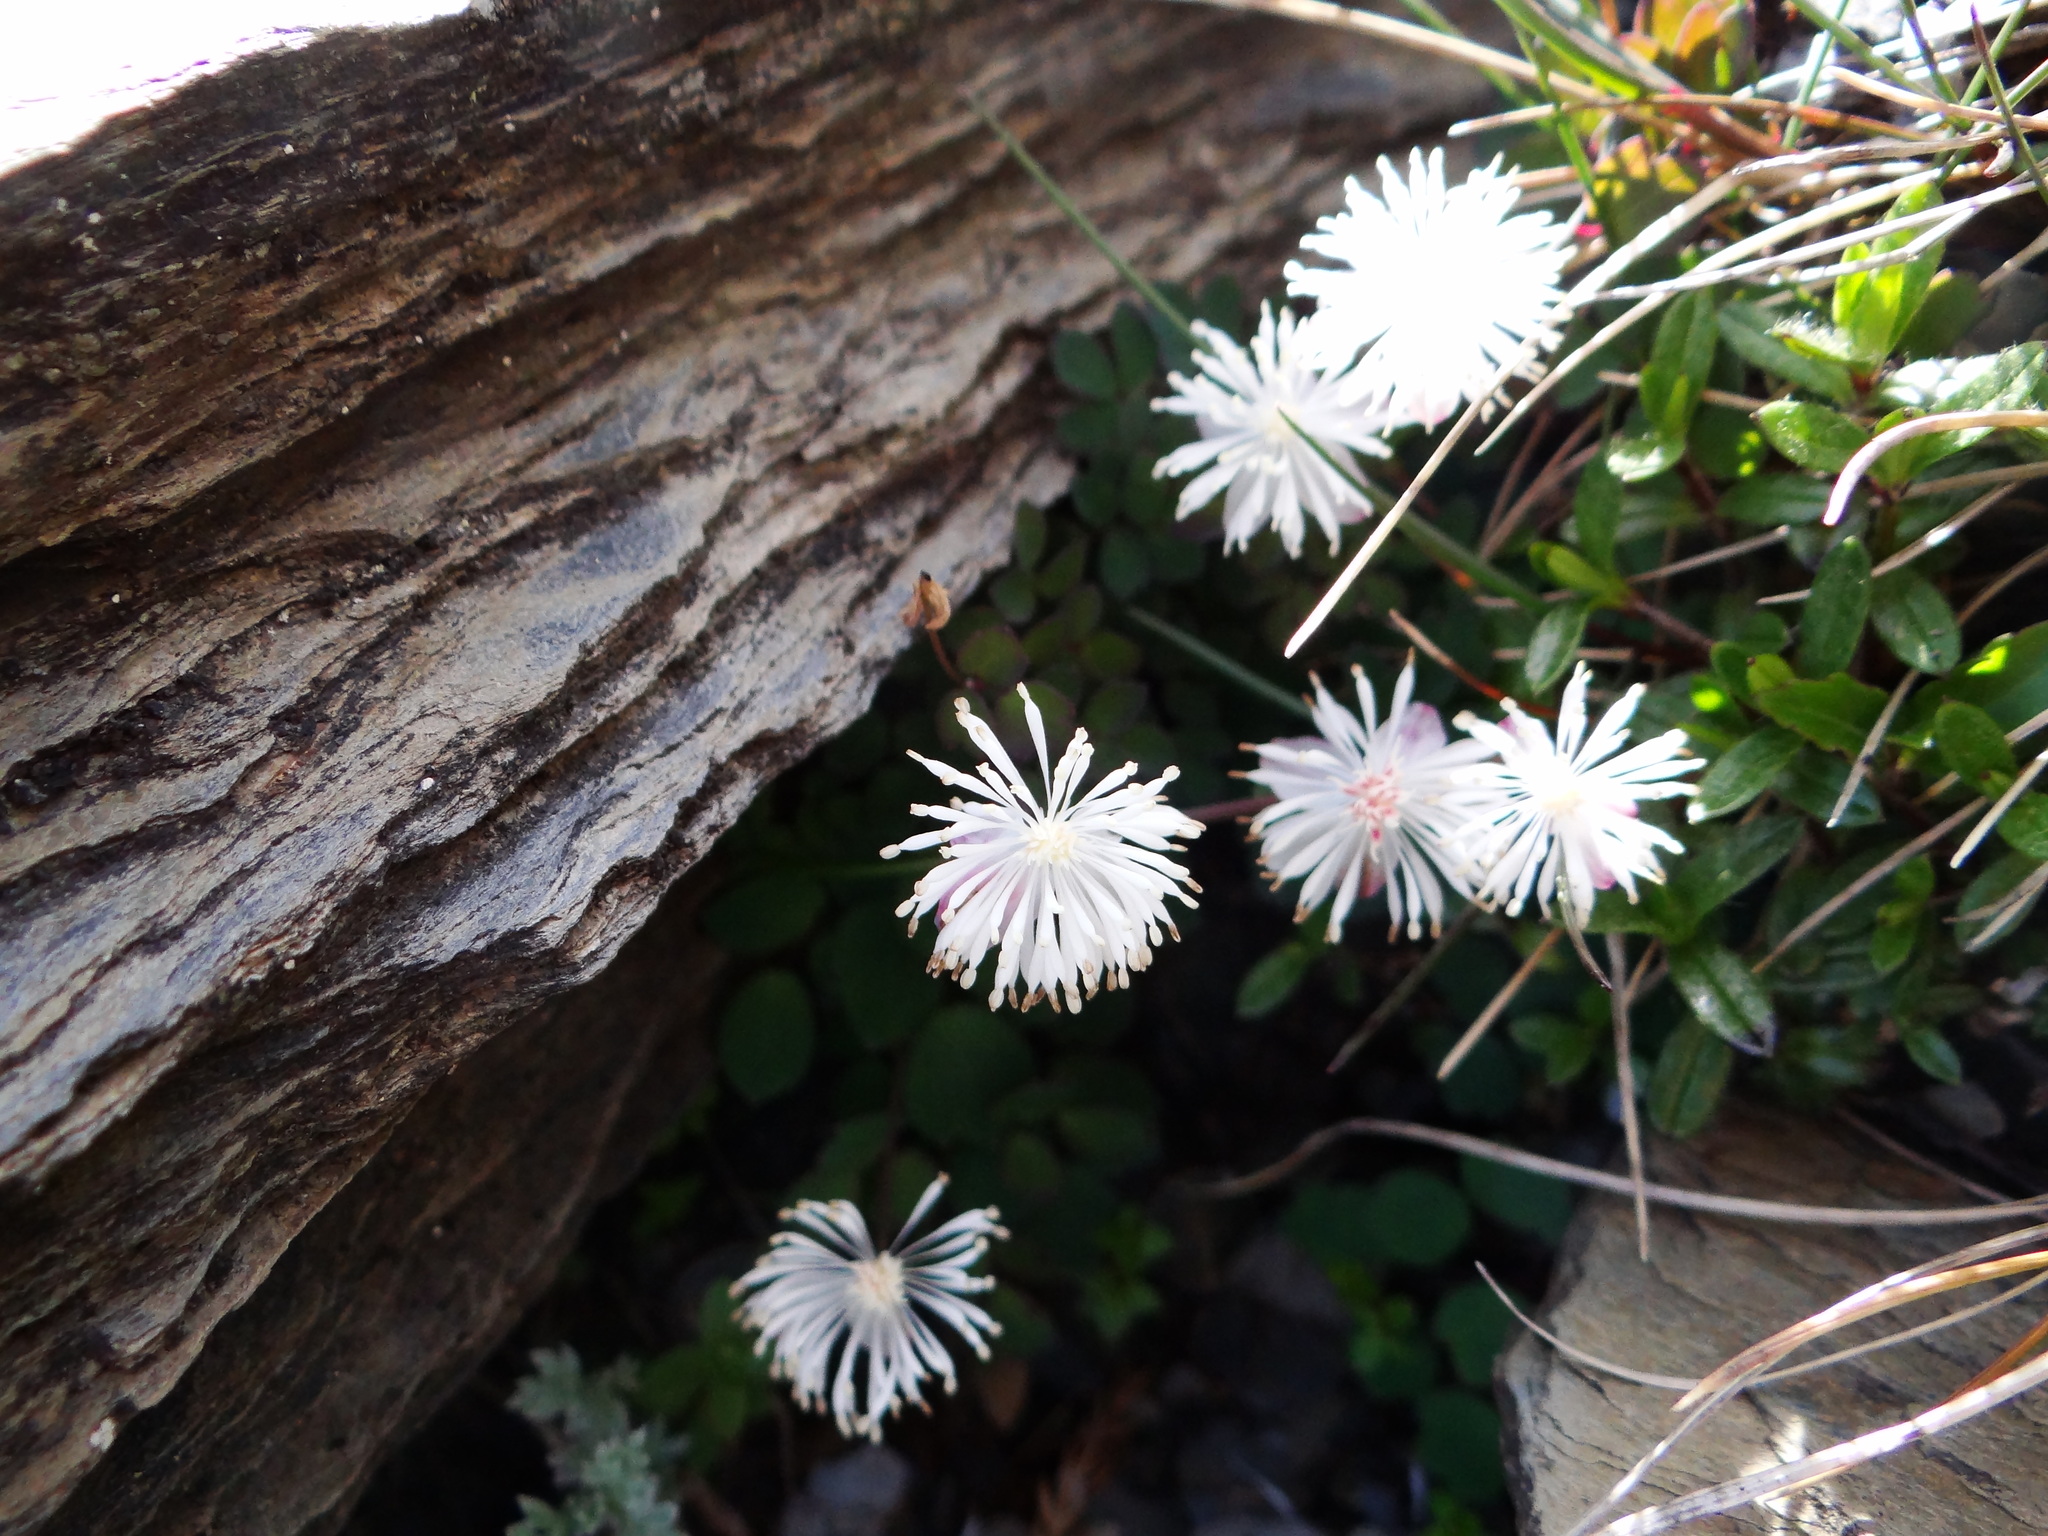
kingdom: Plantae
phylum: Tracheophyta
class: Magnoliopsida
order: Ranunculales
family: Ranunculaceae
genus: Thalictrum
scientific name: Thalictrum rubescens
